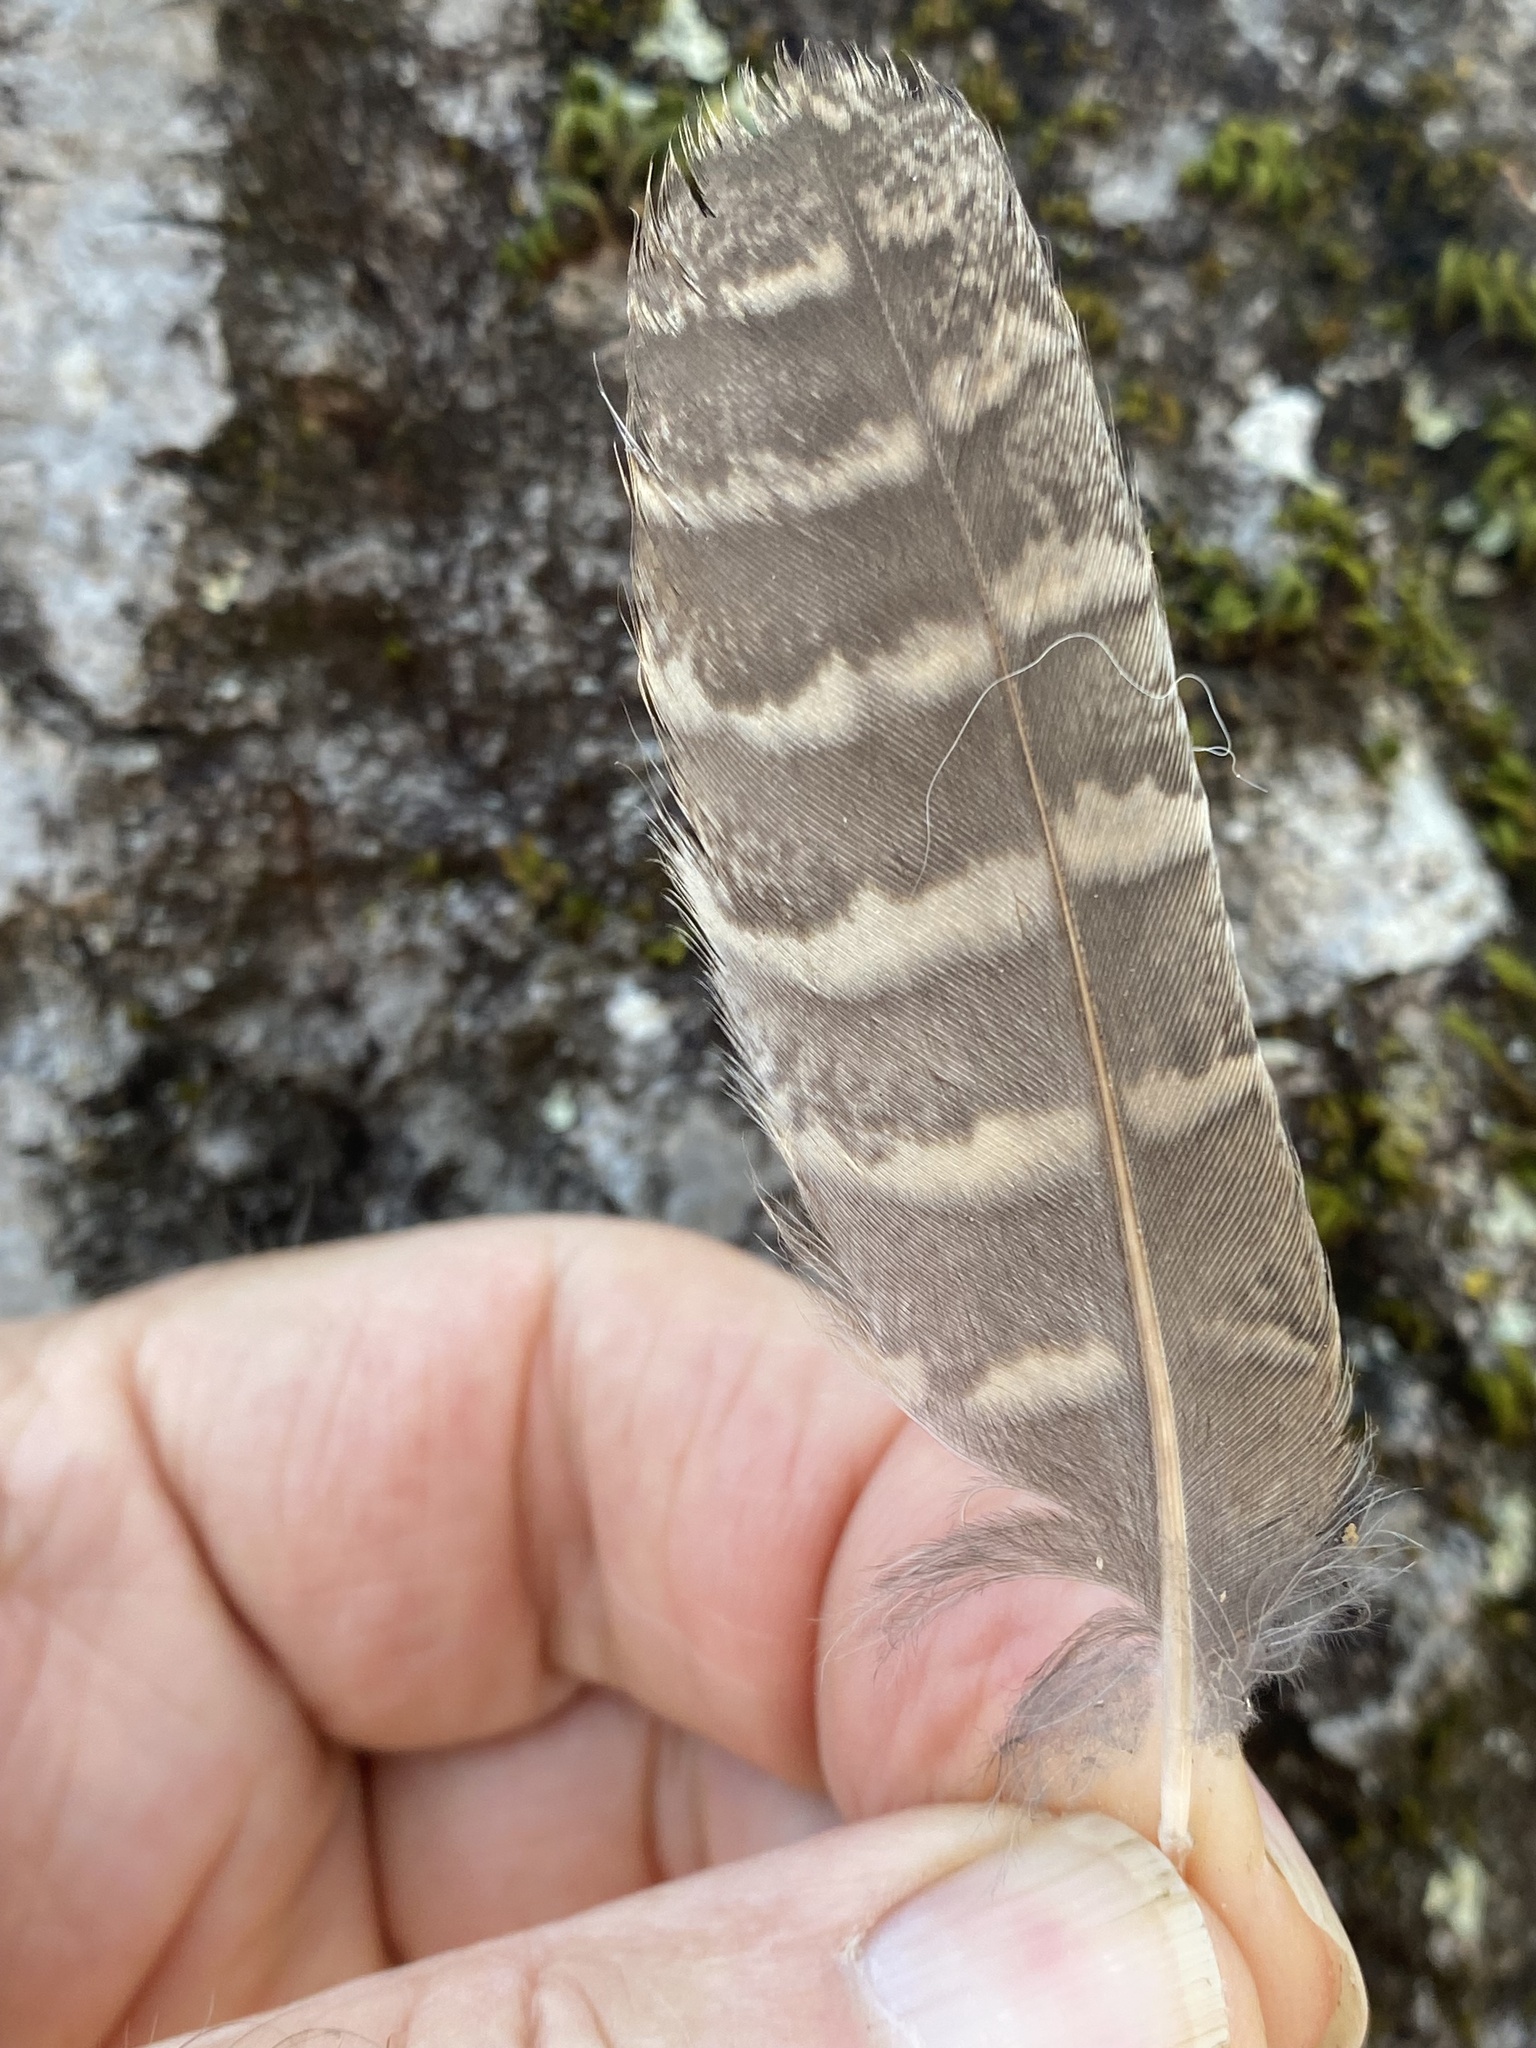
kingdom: Animalia
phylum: Chordata
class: Aves
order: Strigiformes
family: Strigidae
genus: Megascops
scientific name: Megascops kennicottii
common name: Western screech-owl
